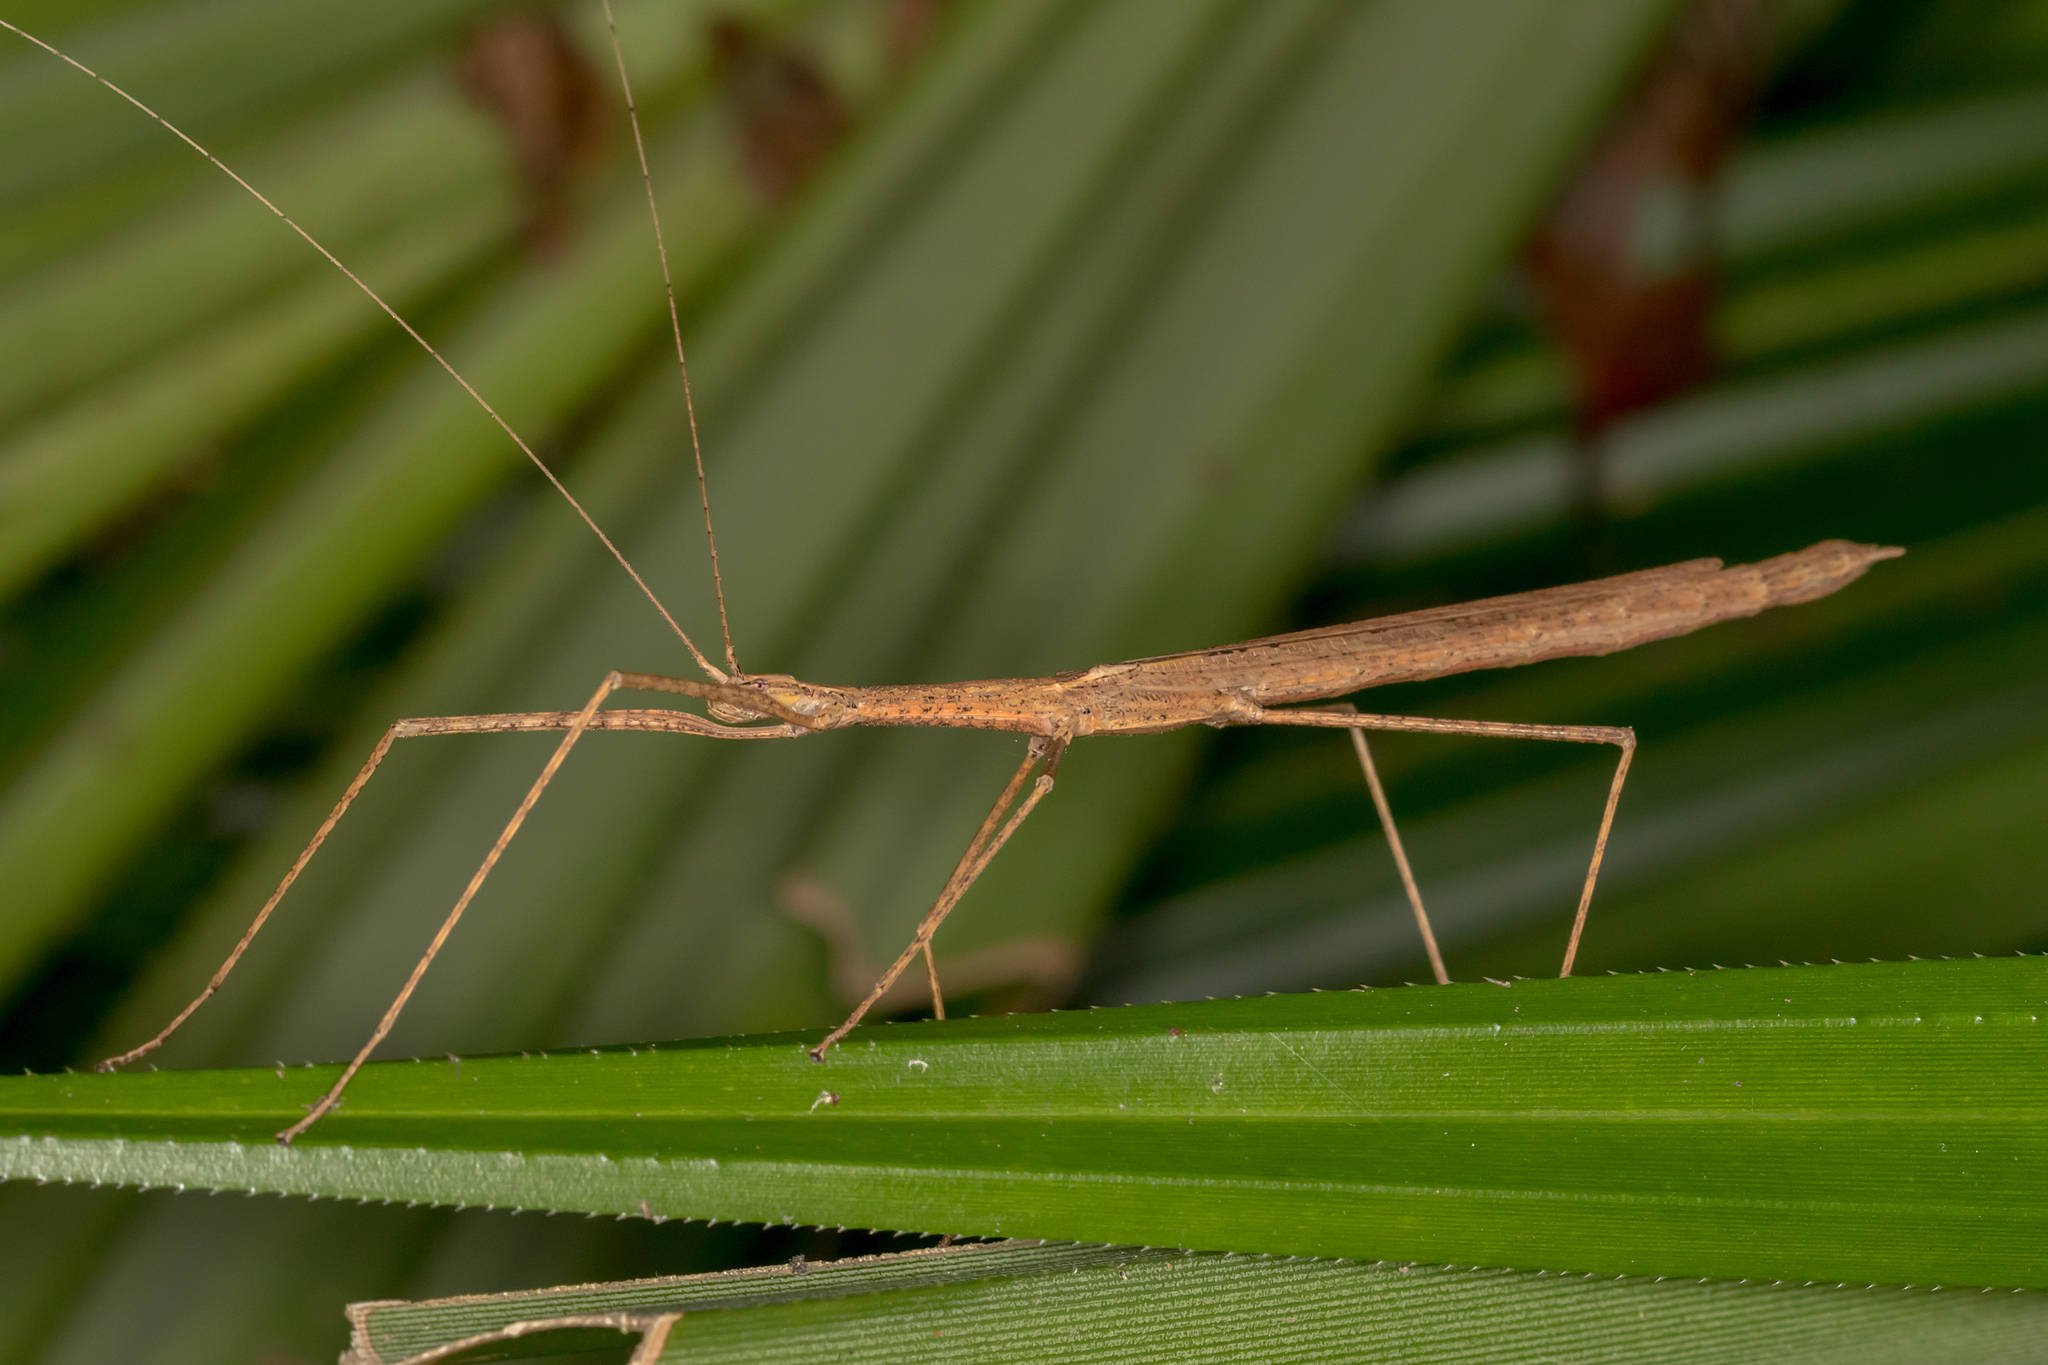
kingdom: Animalia
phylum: Arthropoda
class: Insecta
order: Phasmida
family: Lonchodidae
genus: Sipyloidea
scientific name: Sipyloidea larryi
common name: Hurricane larry stick-insect
